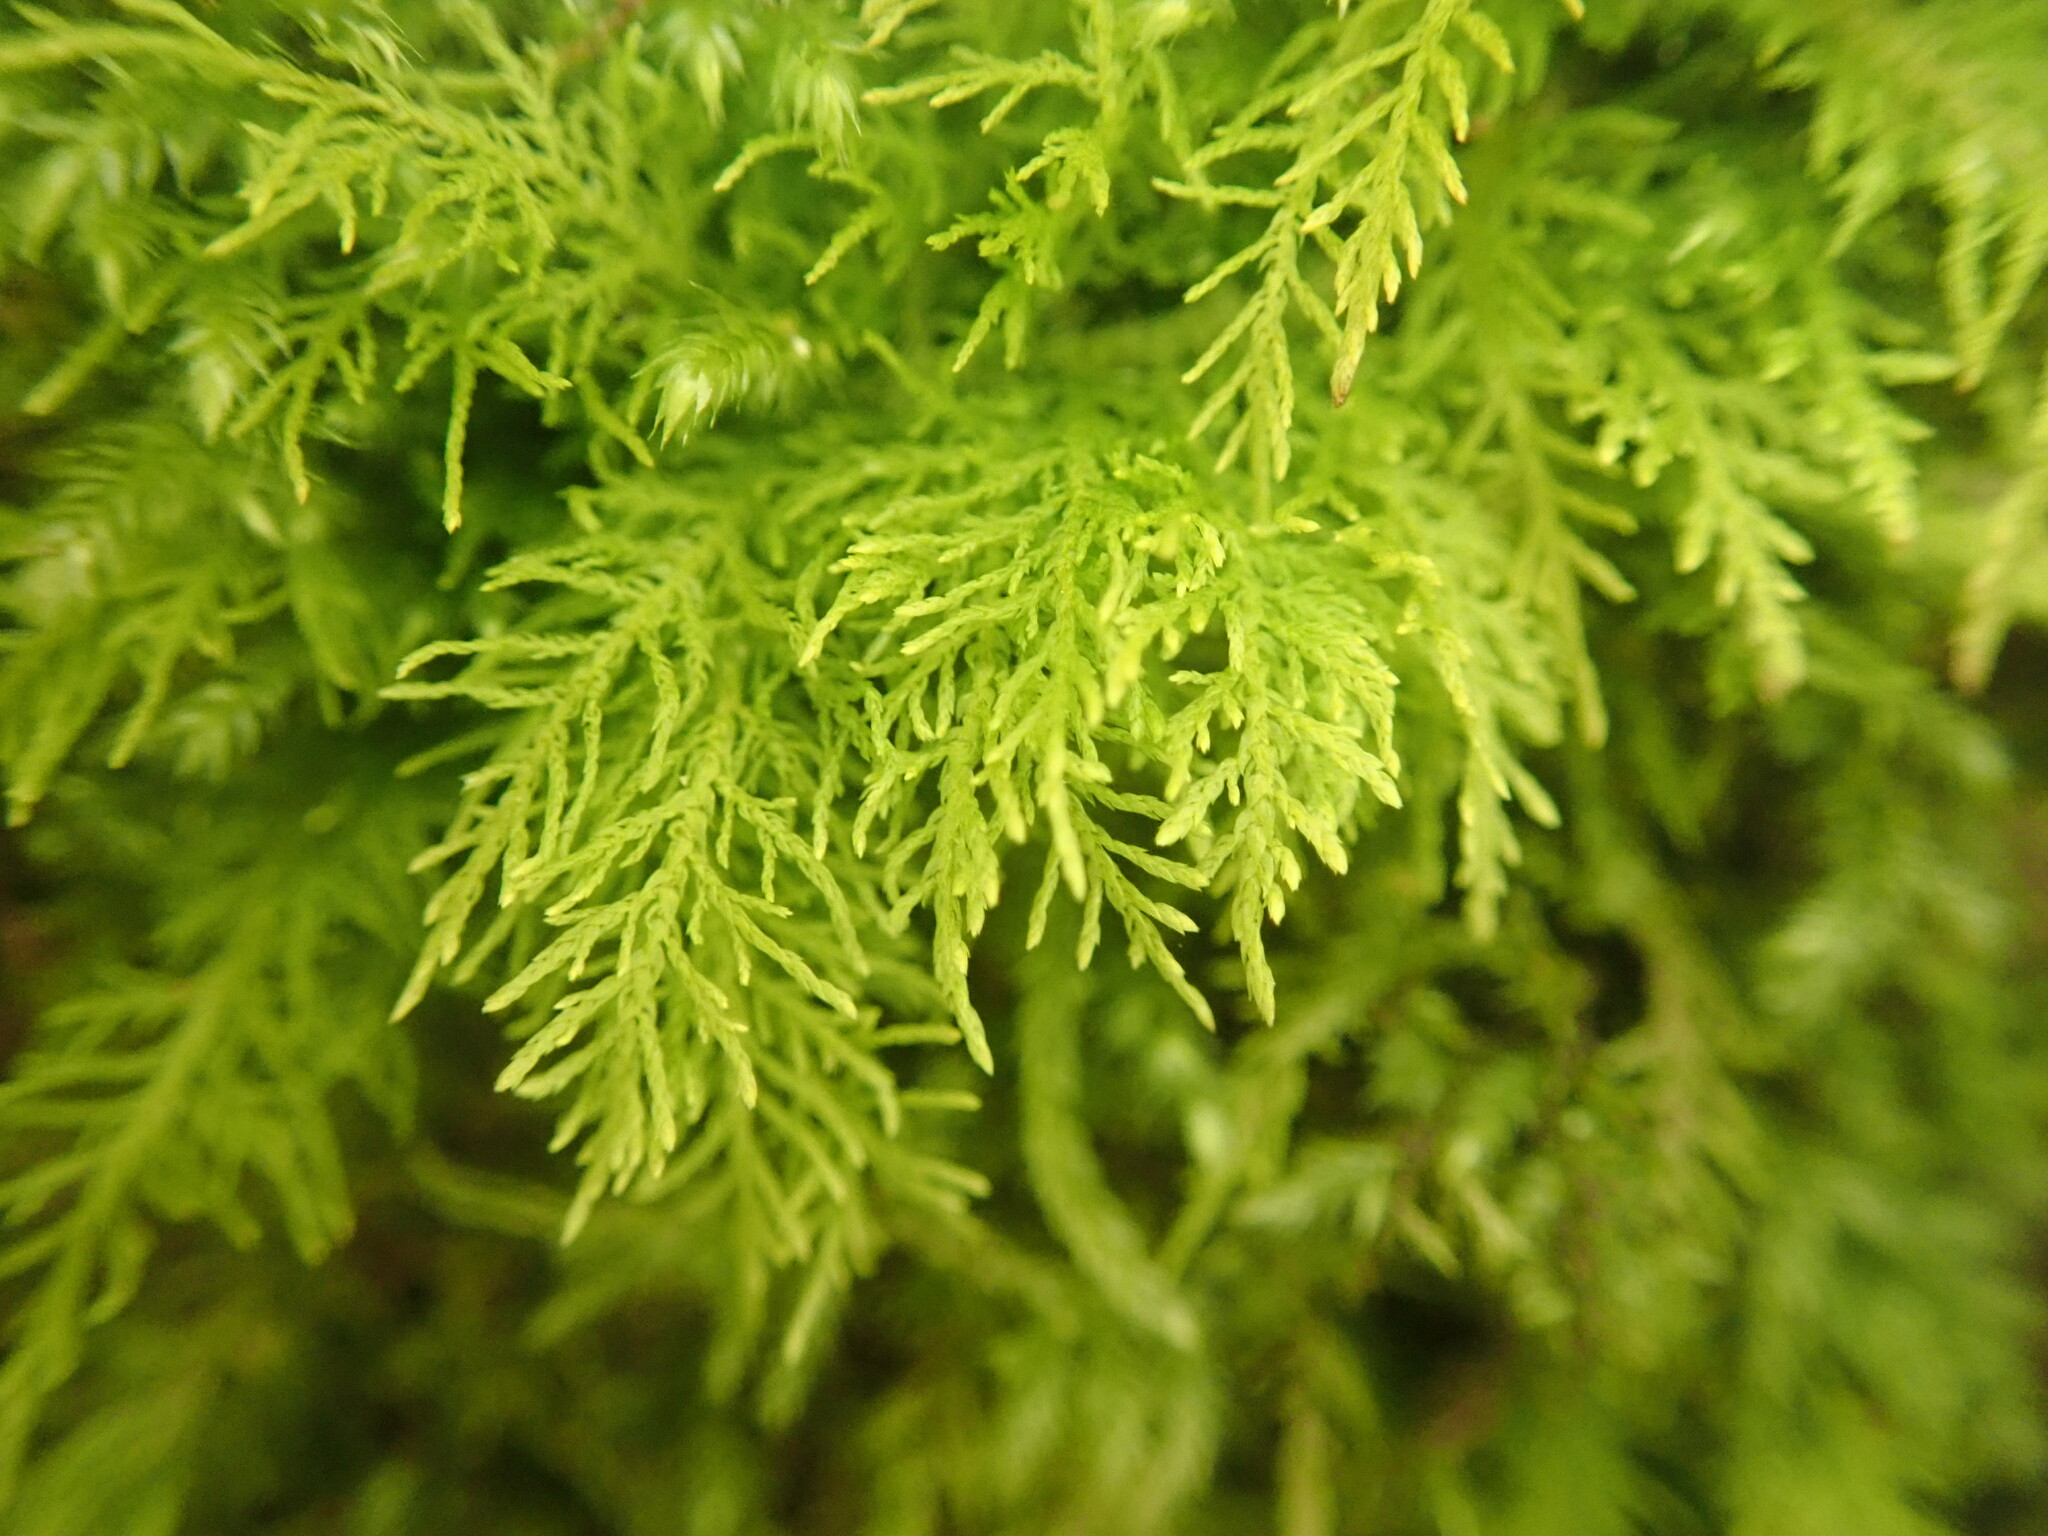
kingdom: Plantae
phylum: Bryophyta
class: Bryopsida
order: Hypnales
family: Thuidiaceae
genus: Thuidium
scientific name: Thuidium tamariscinum
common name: Common tamarisk-moss
